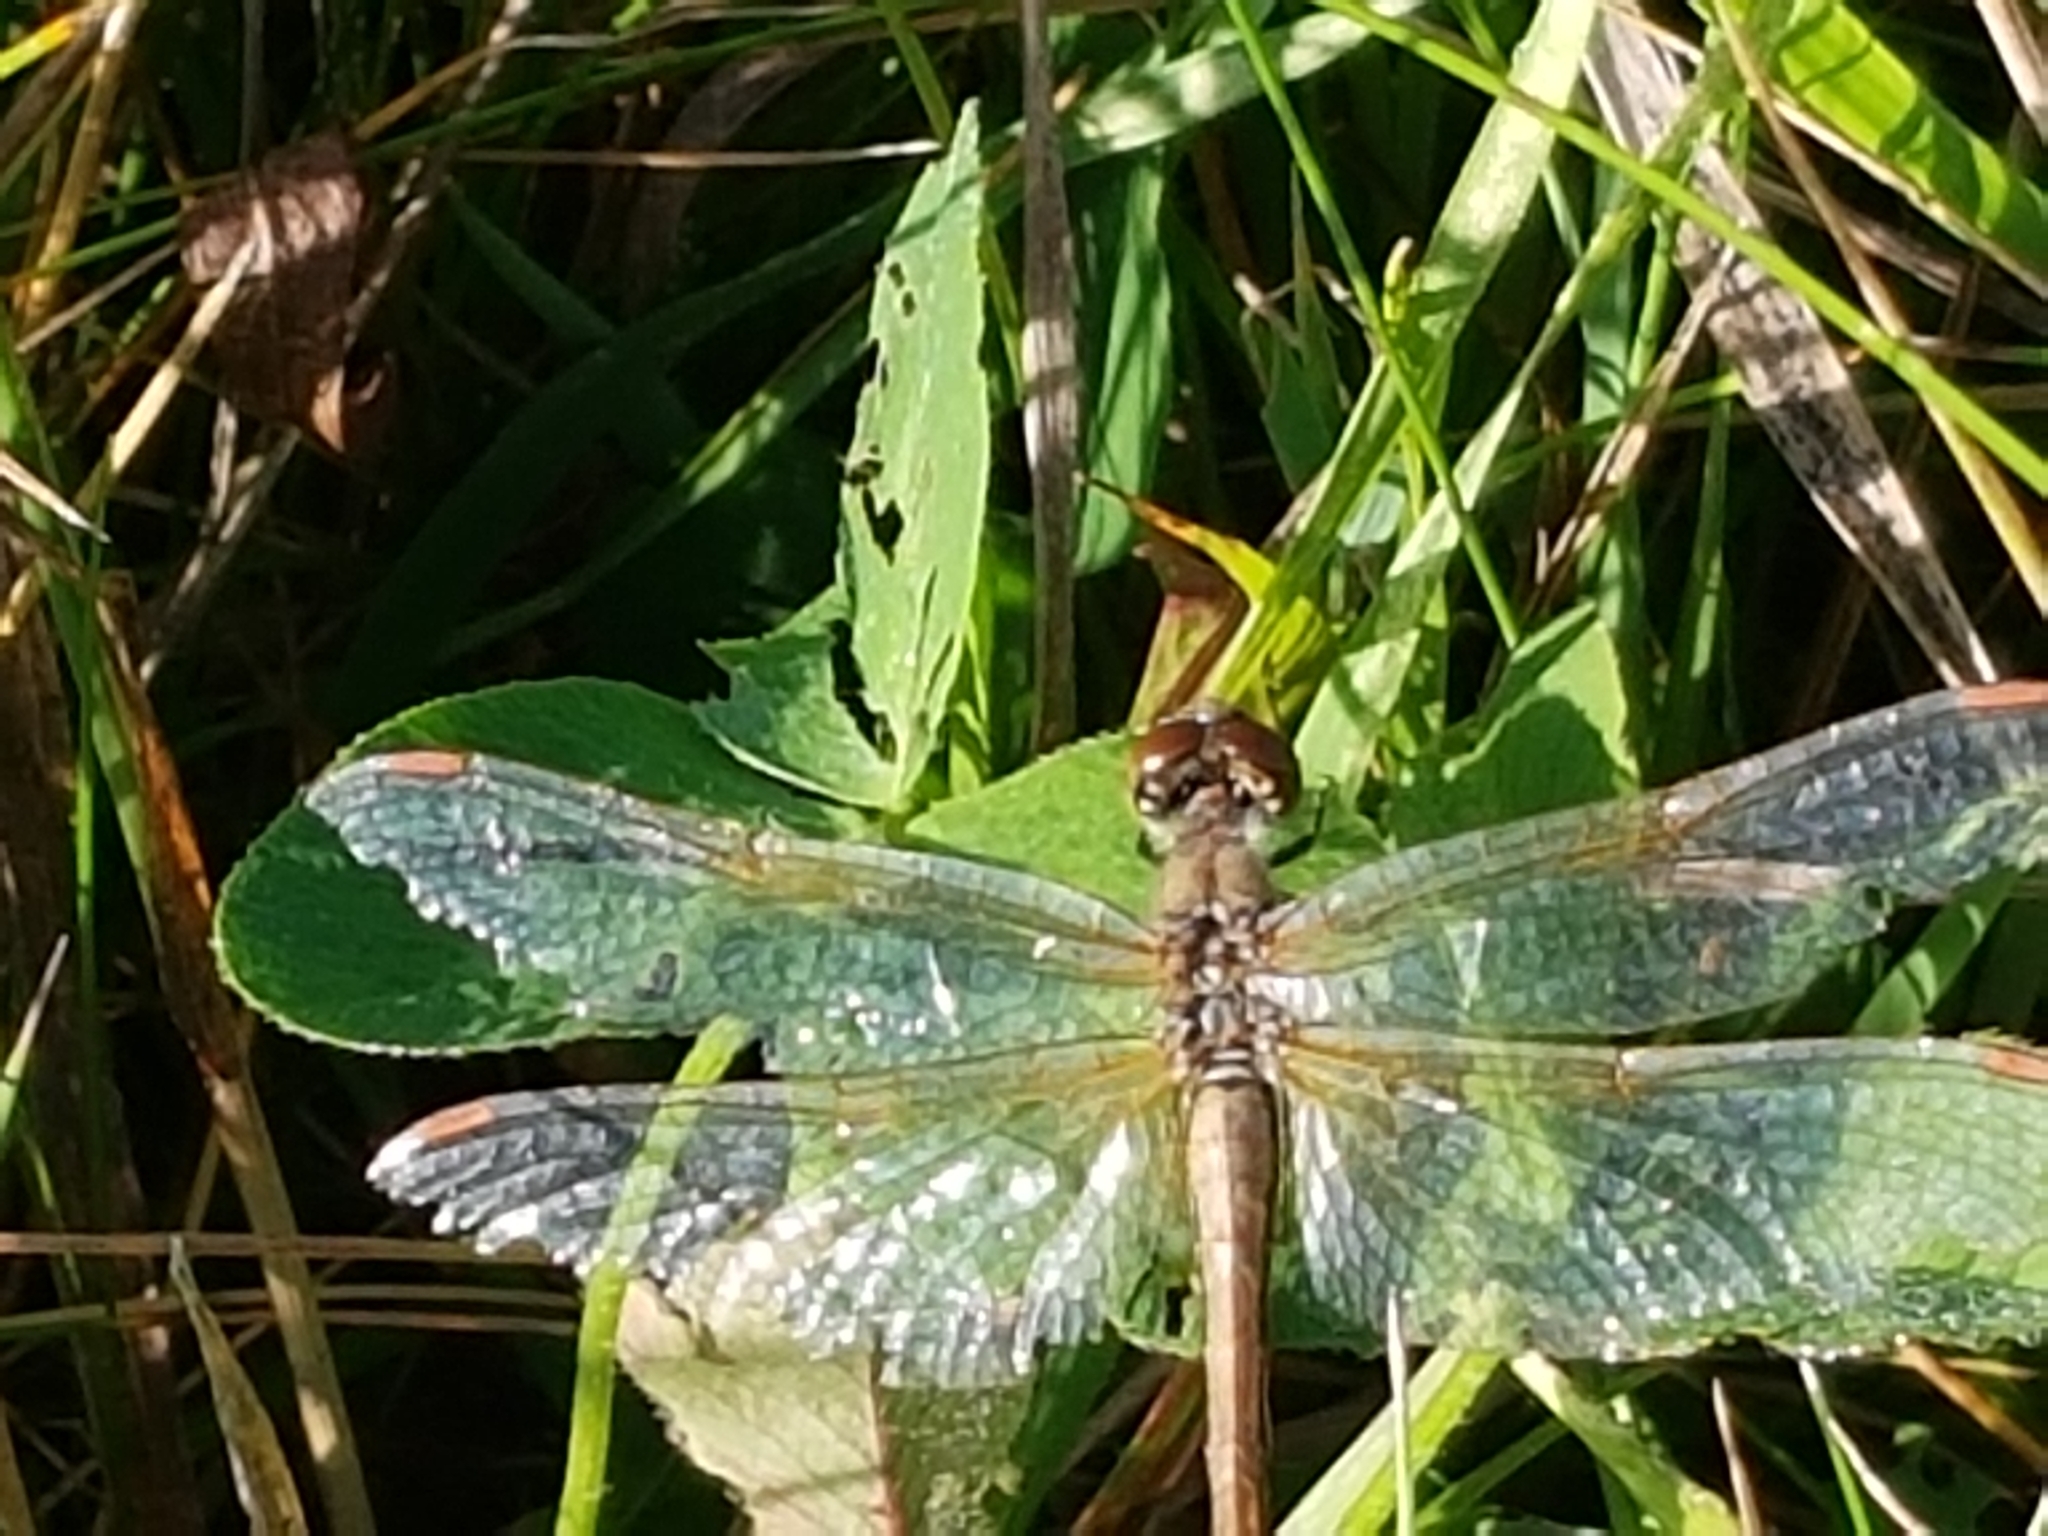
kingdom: Animalia
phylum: Arthropoda
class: Insecta
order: Odonata
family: Libellulidae
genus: Sympetrum
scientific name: Sympetrum flaveolum
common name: Yellow-winged darter
